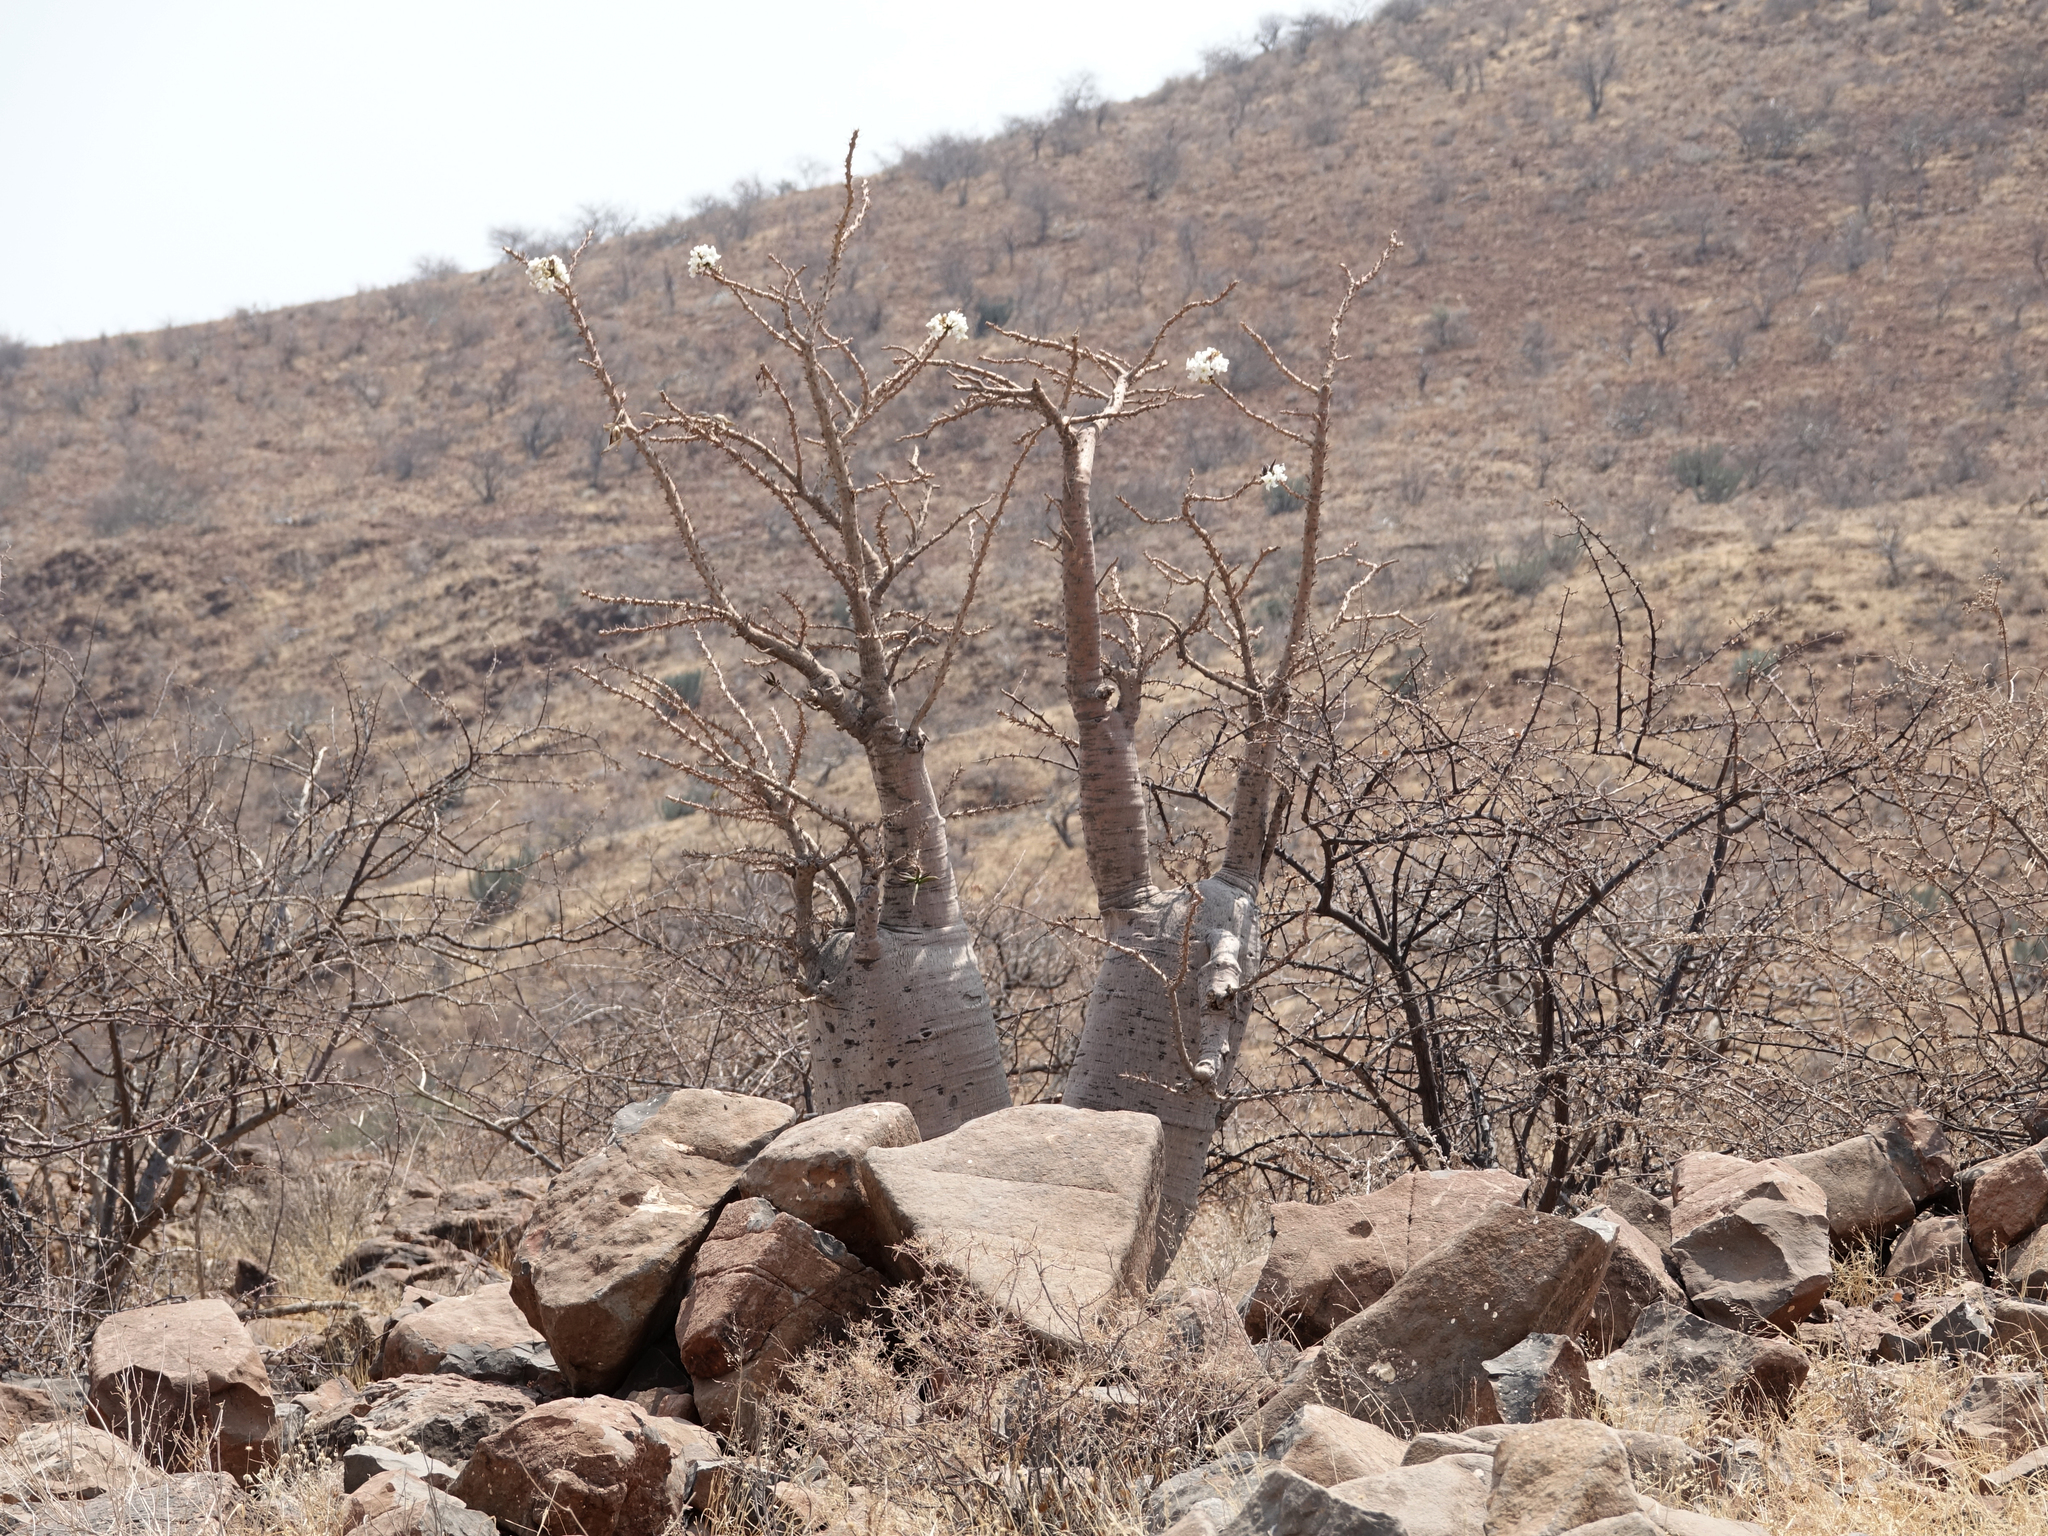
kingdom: Plantae
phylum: Tracheophyta
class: Magnoliopsida
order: Gentianales
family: Apocynaceae
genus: Pachypodium
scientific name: Pachypodium lealii
